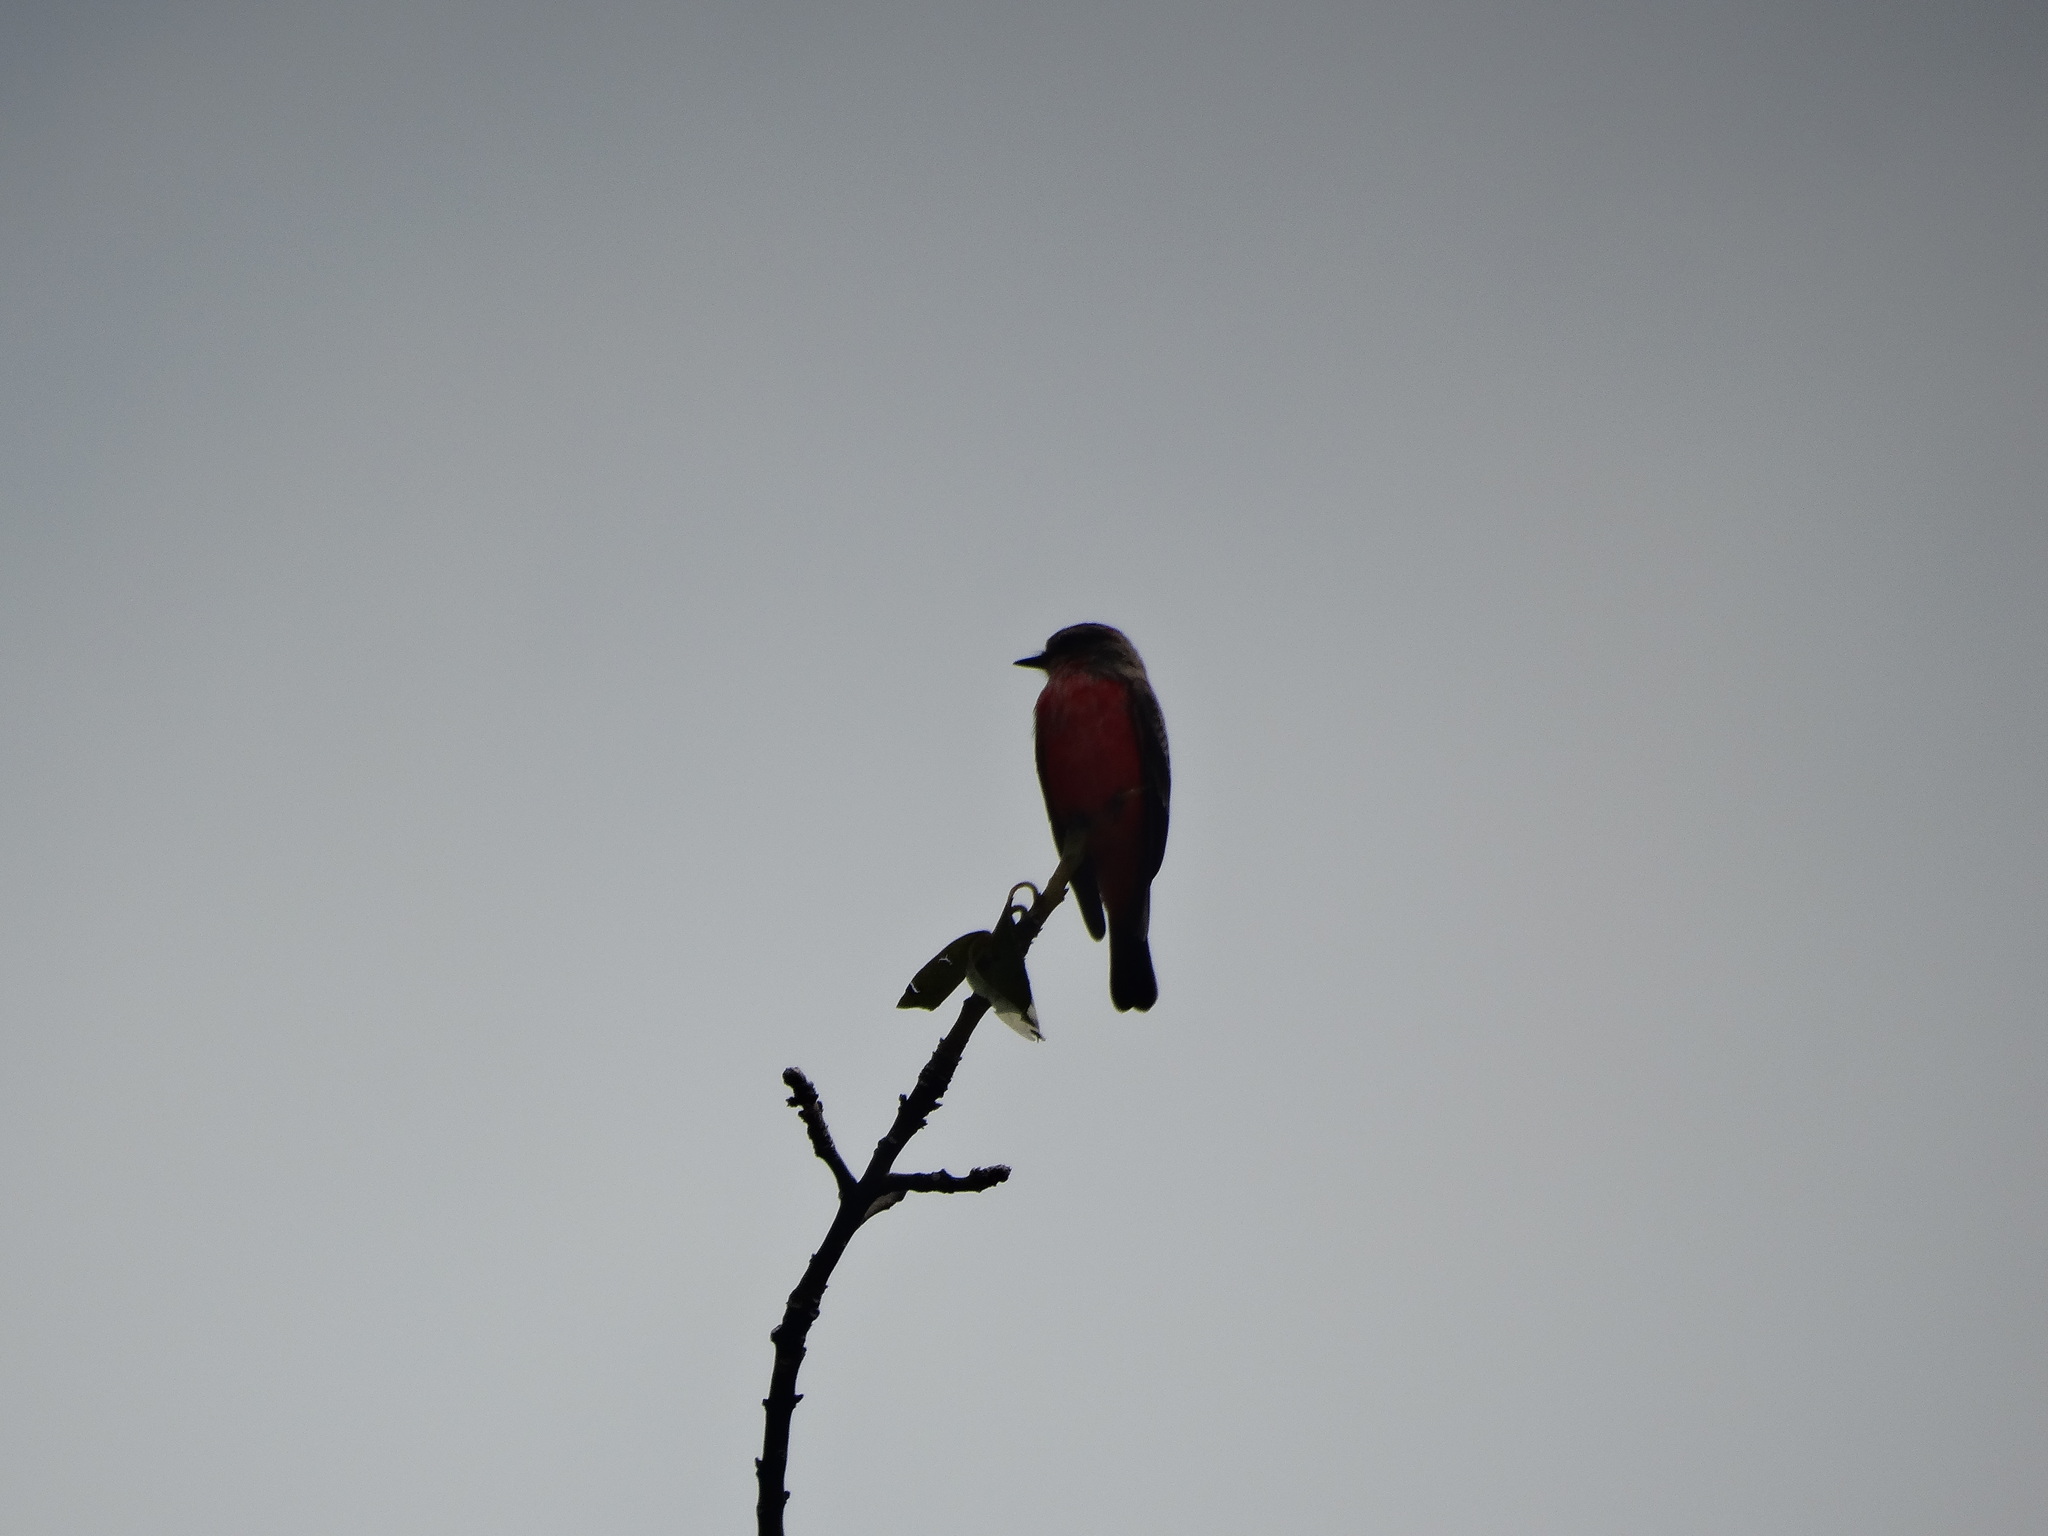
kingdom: Animalia
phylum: Chordata
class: Aves
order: Passeriformes
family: Tyrannidae
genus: Pyrocephalus
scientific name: Pyrocephalus rubinus
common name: Vermilion flycatcher
